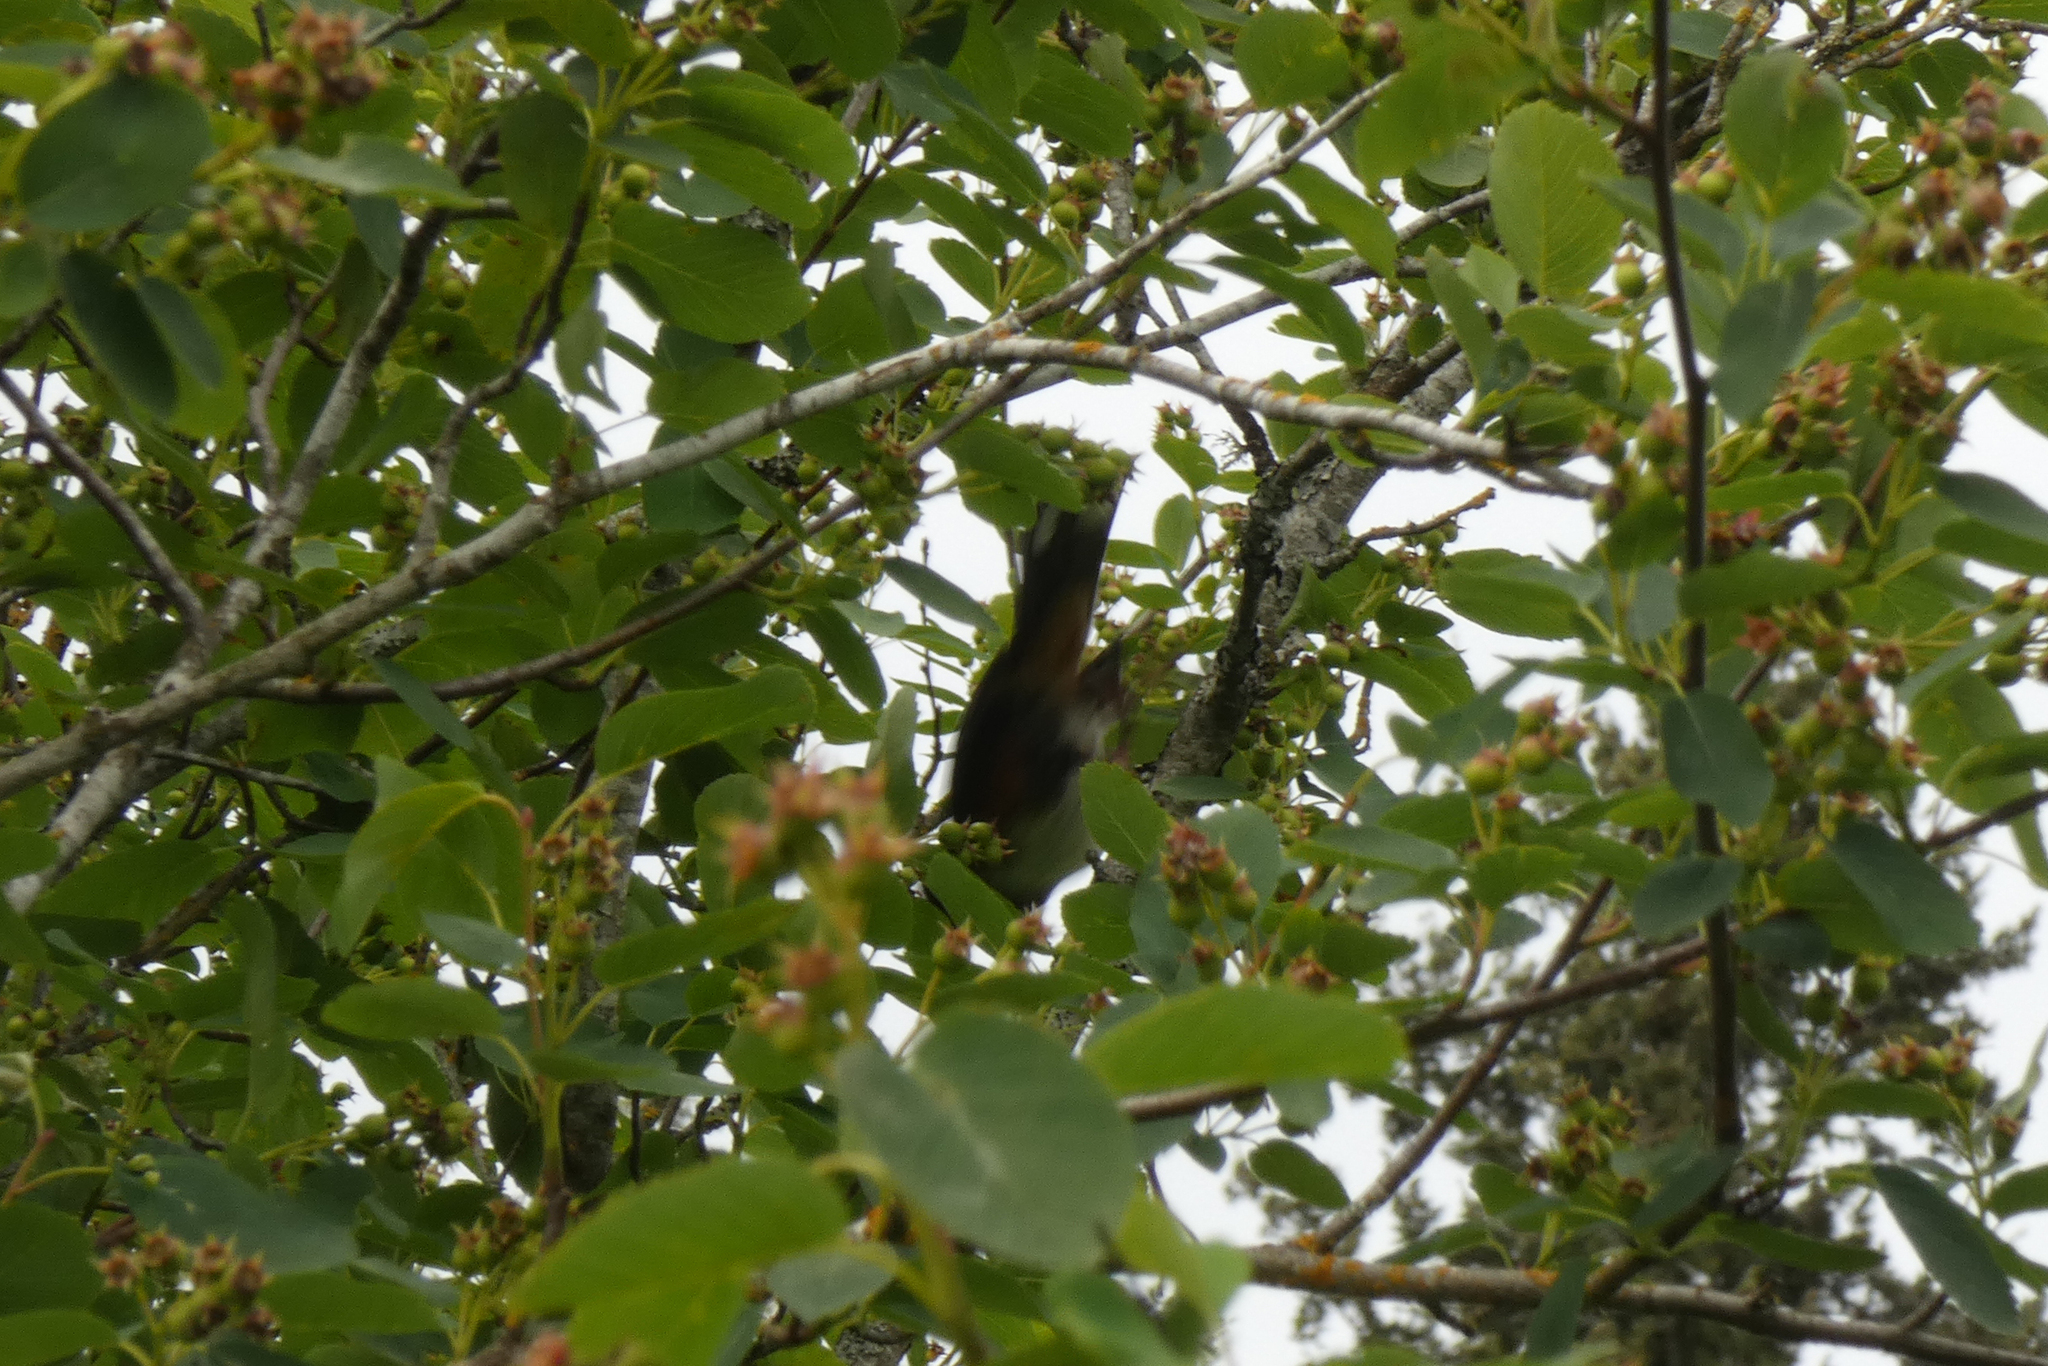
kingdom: Animalia
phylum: Chordata
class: Aves
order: Passeriformes
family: Passerellidae
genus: Pipilo
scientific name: Pipilo maculatus
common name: Spotted towhee
